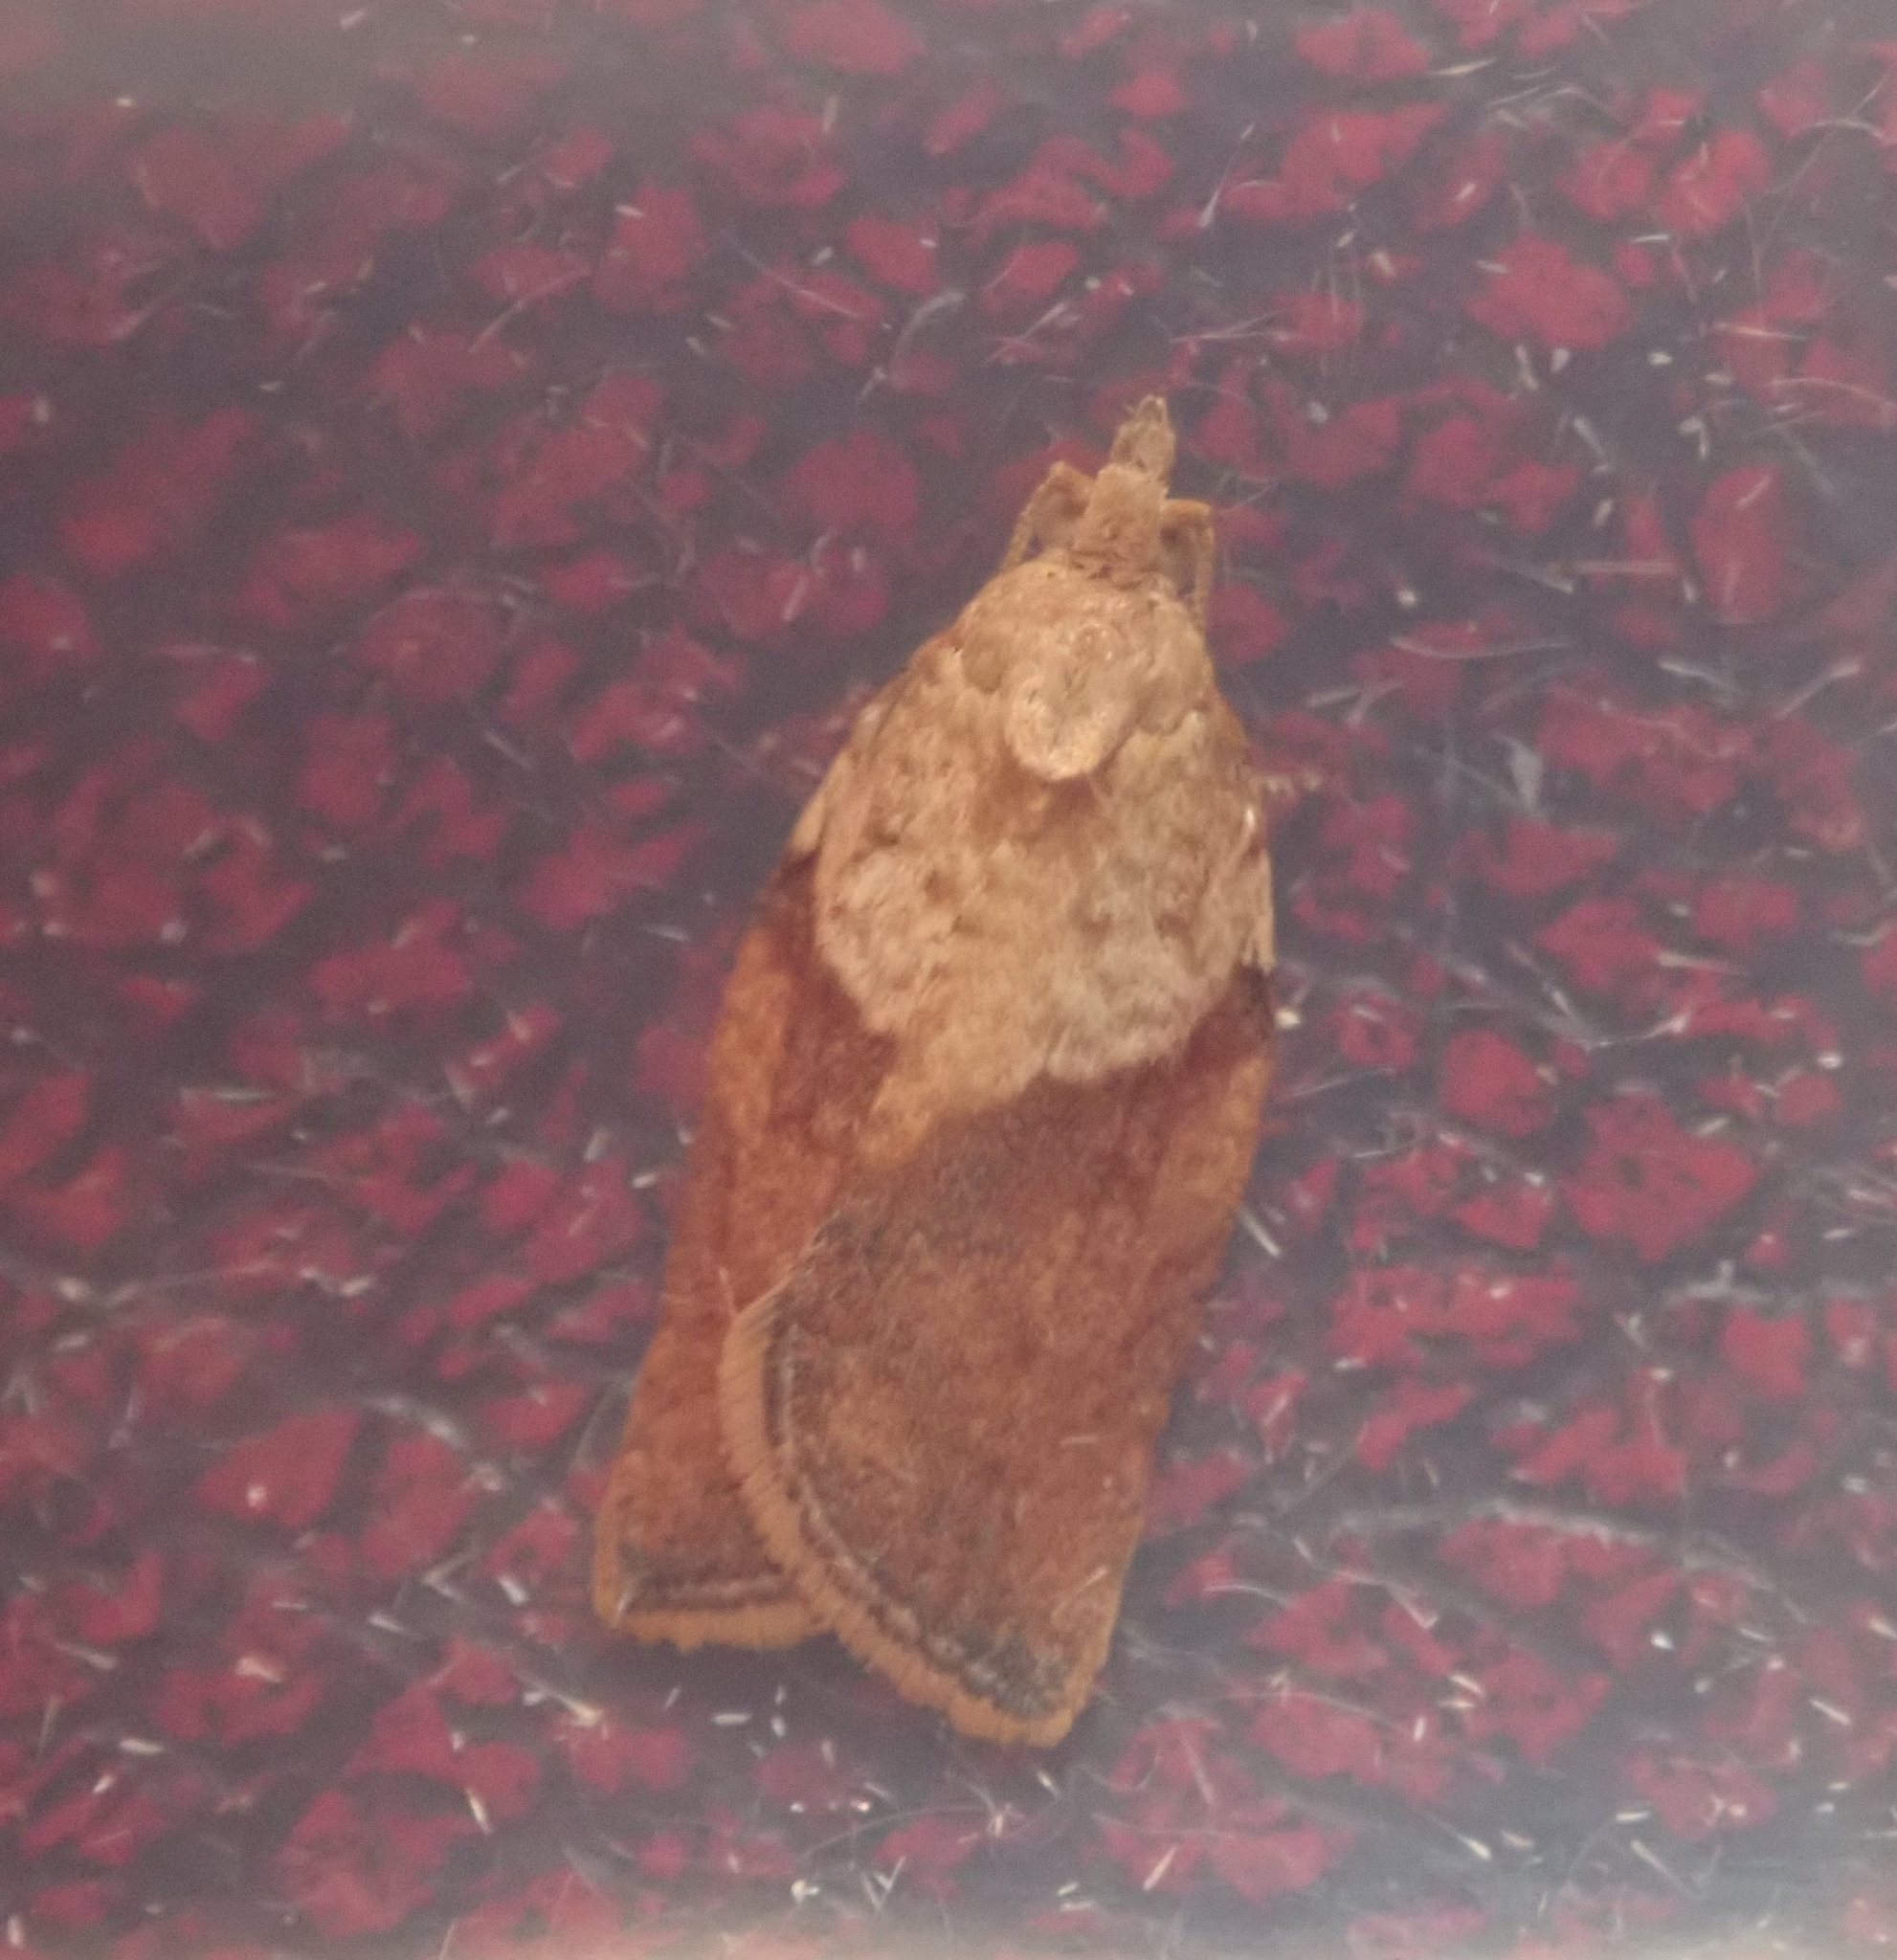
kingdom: Animalia
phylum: Arthropoda
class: Insecta
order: Lepidoptera
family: Tortricidae
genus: Epiphyas
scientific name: Epiphyas postvittana
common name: Light brown apple moth
